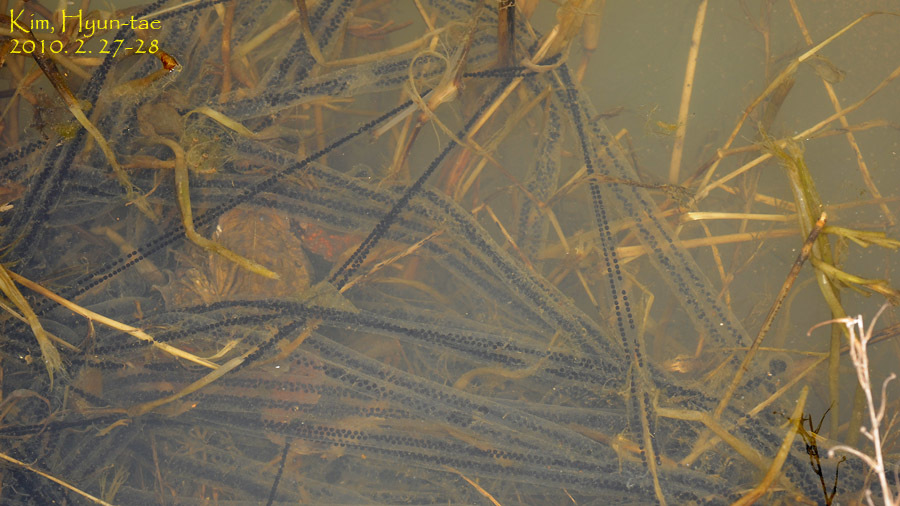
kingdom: Animalia
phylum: Chordata
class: Amphibia
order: Anura
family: Bufonidae
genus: Bufo
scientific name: Bufo gargarizans
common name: Asiatic toad
